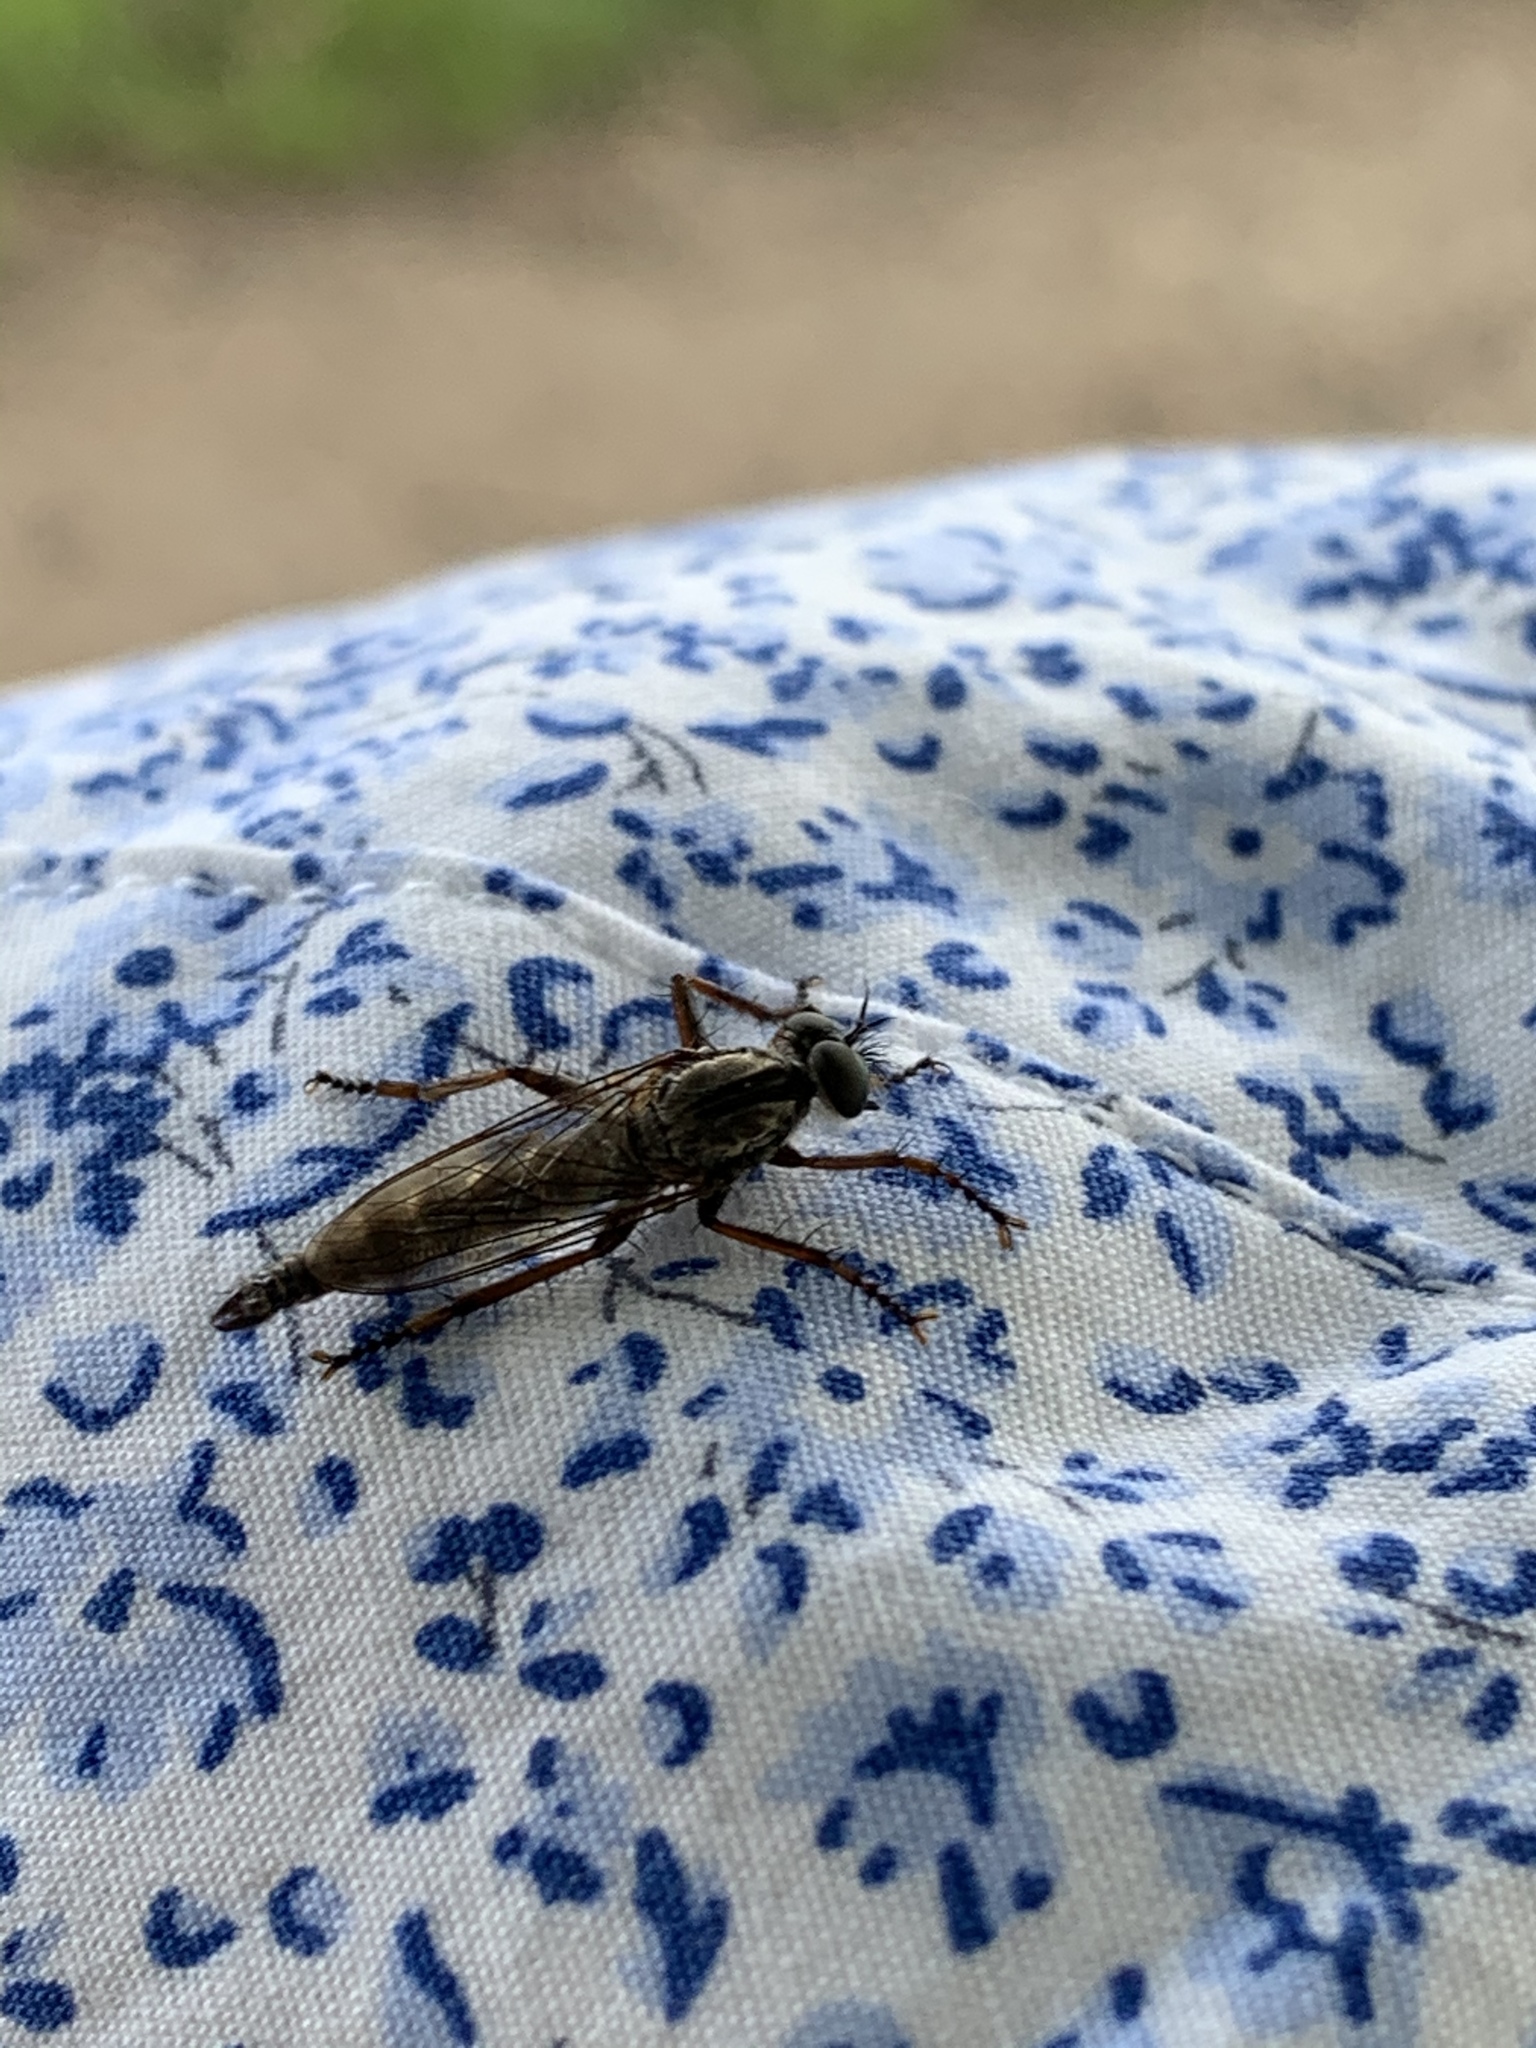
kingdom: Animalia
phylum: Arthropoda
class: Insecta
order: Diptera
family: Asilidae
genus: Machimus
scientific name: Machimus atricapillus
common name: Kite-tailed robberfly
